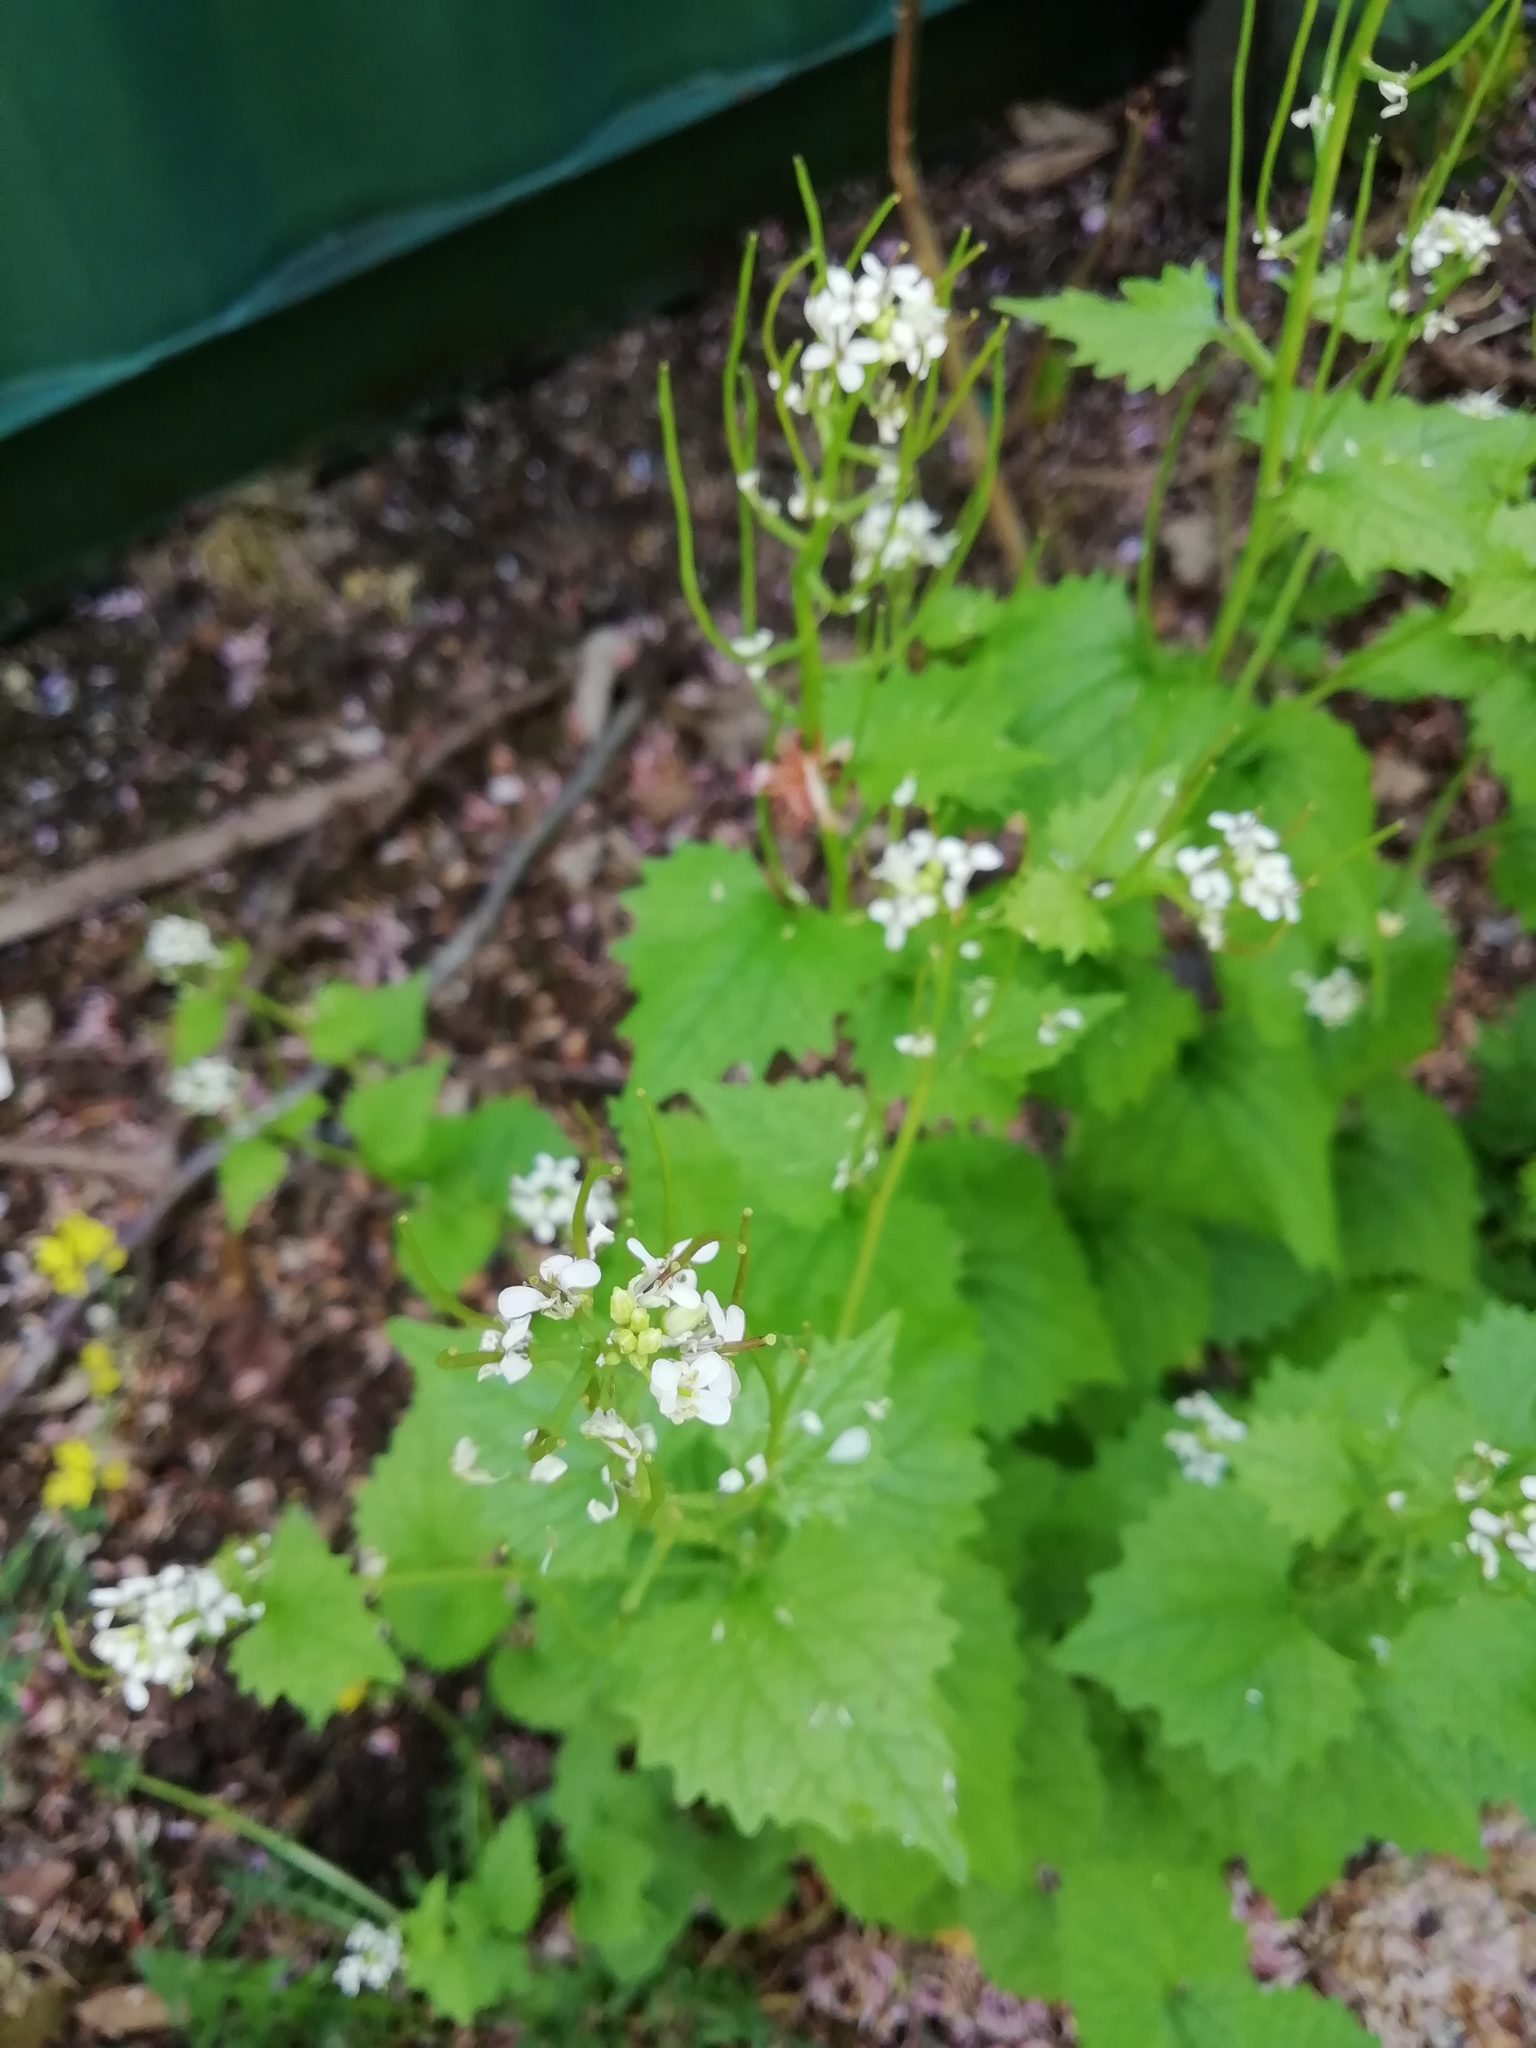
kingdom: Plantae
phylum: Tracheophyta
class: Magnoliopsida
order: Brassicales
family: Brassicaceae
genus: Alliaria
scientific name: Alliaria petiolata
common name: Garlic mustard
